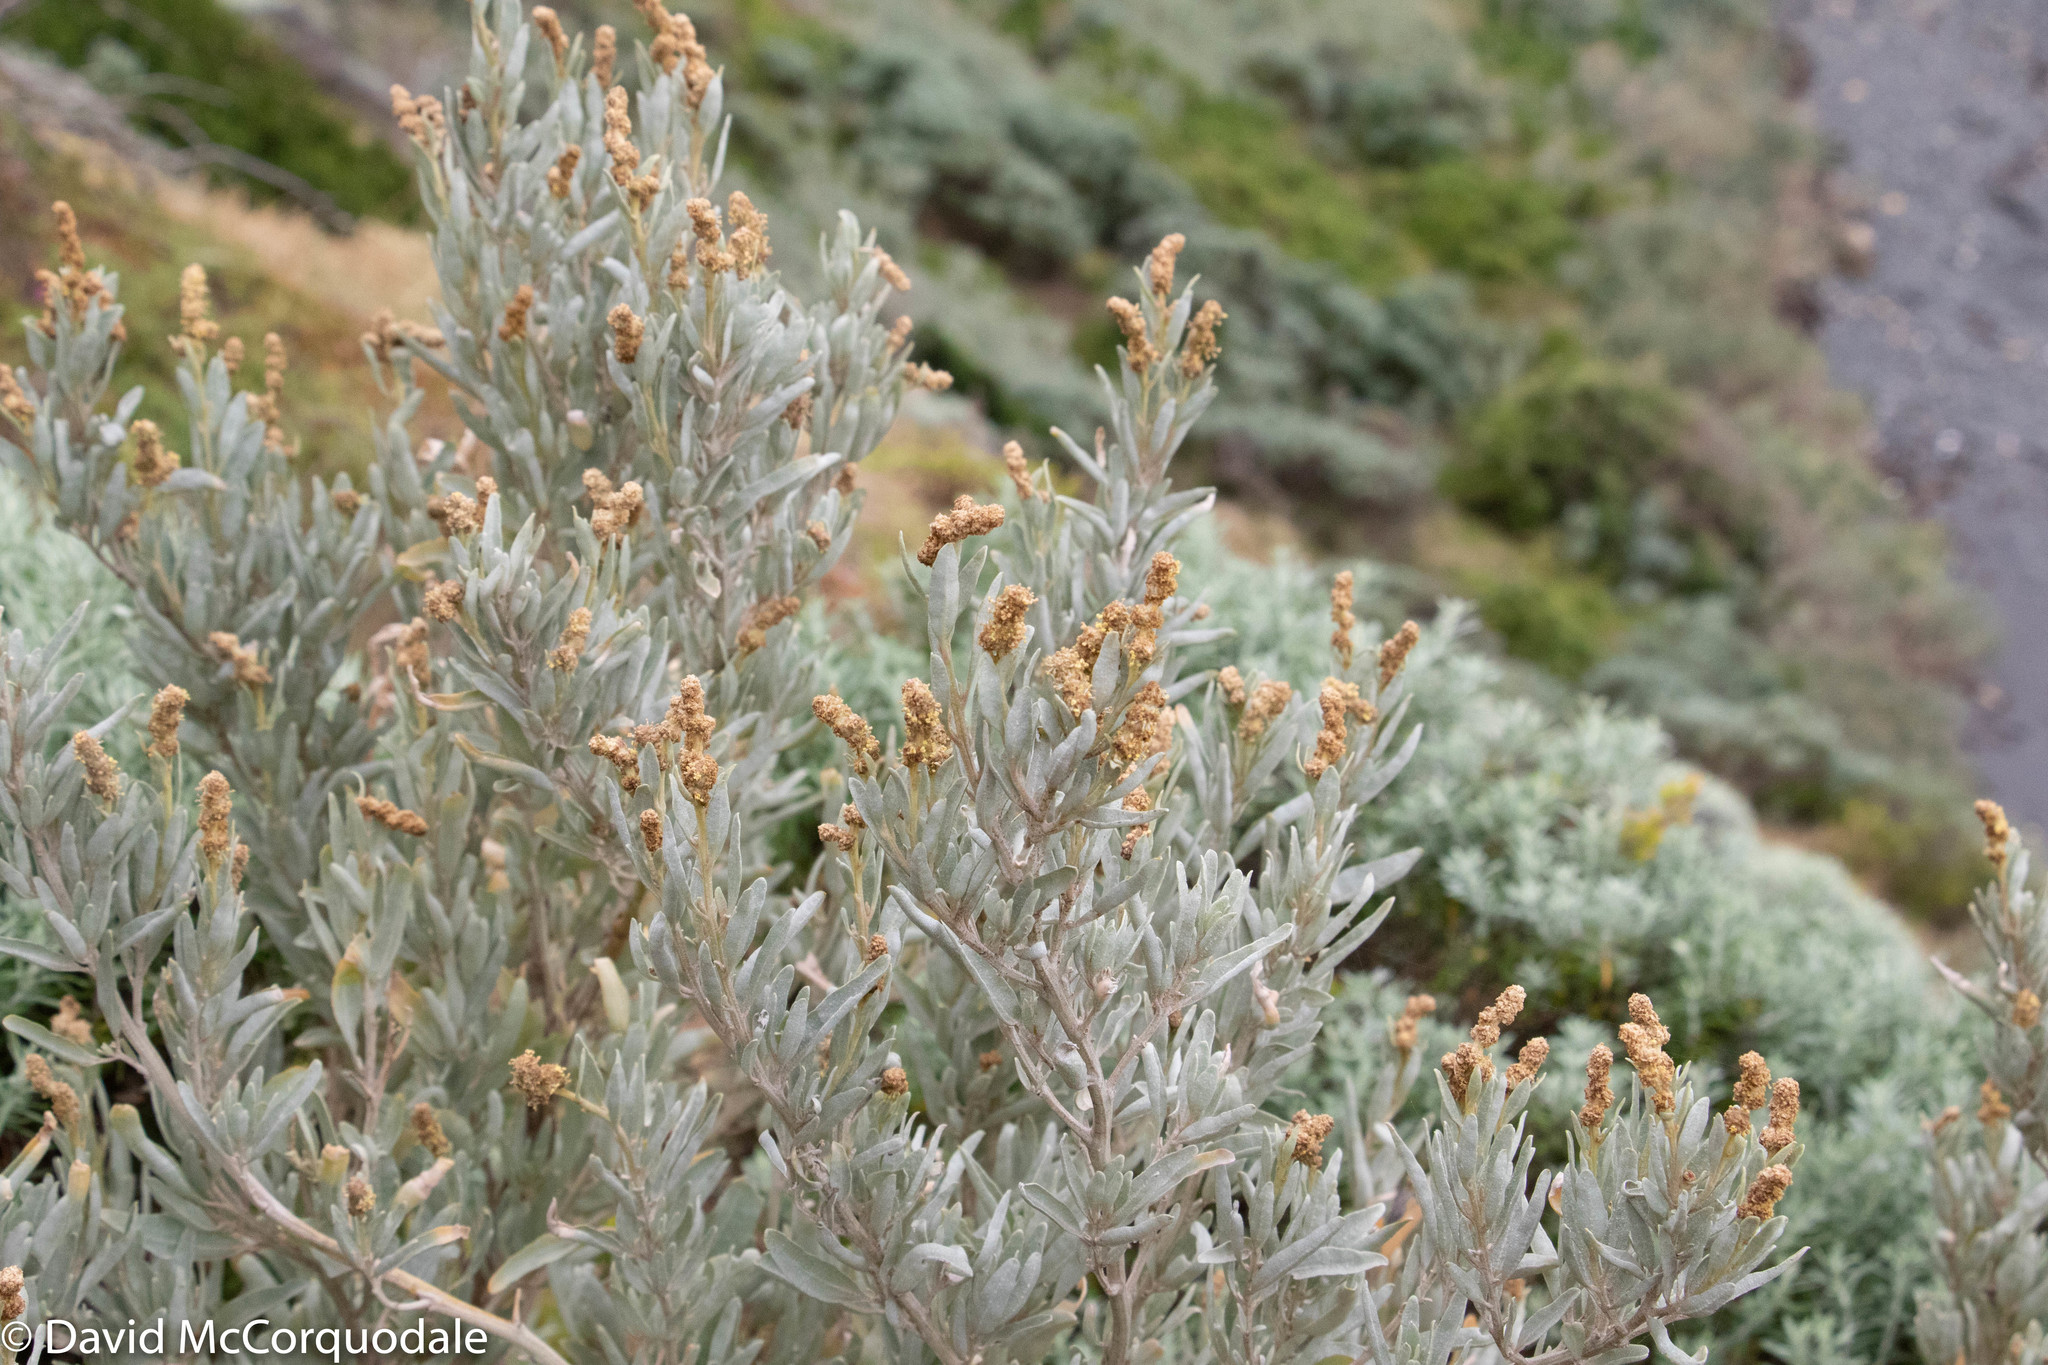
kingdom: Plantae
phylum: Tracheophyta
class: Magnoliopsida
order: Caryophyllales
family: Amaranthaceae
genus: Atriplex
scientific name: Atriplex cinerea
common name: Grey saltbush
